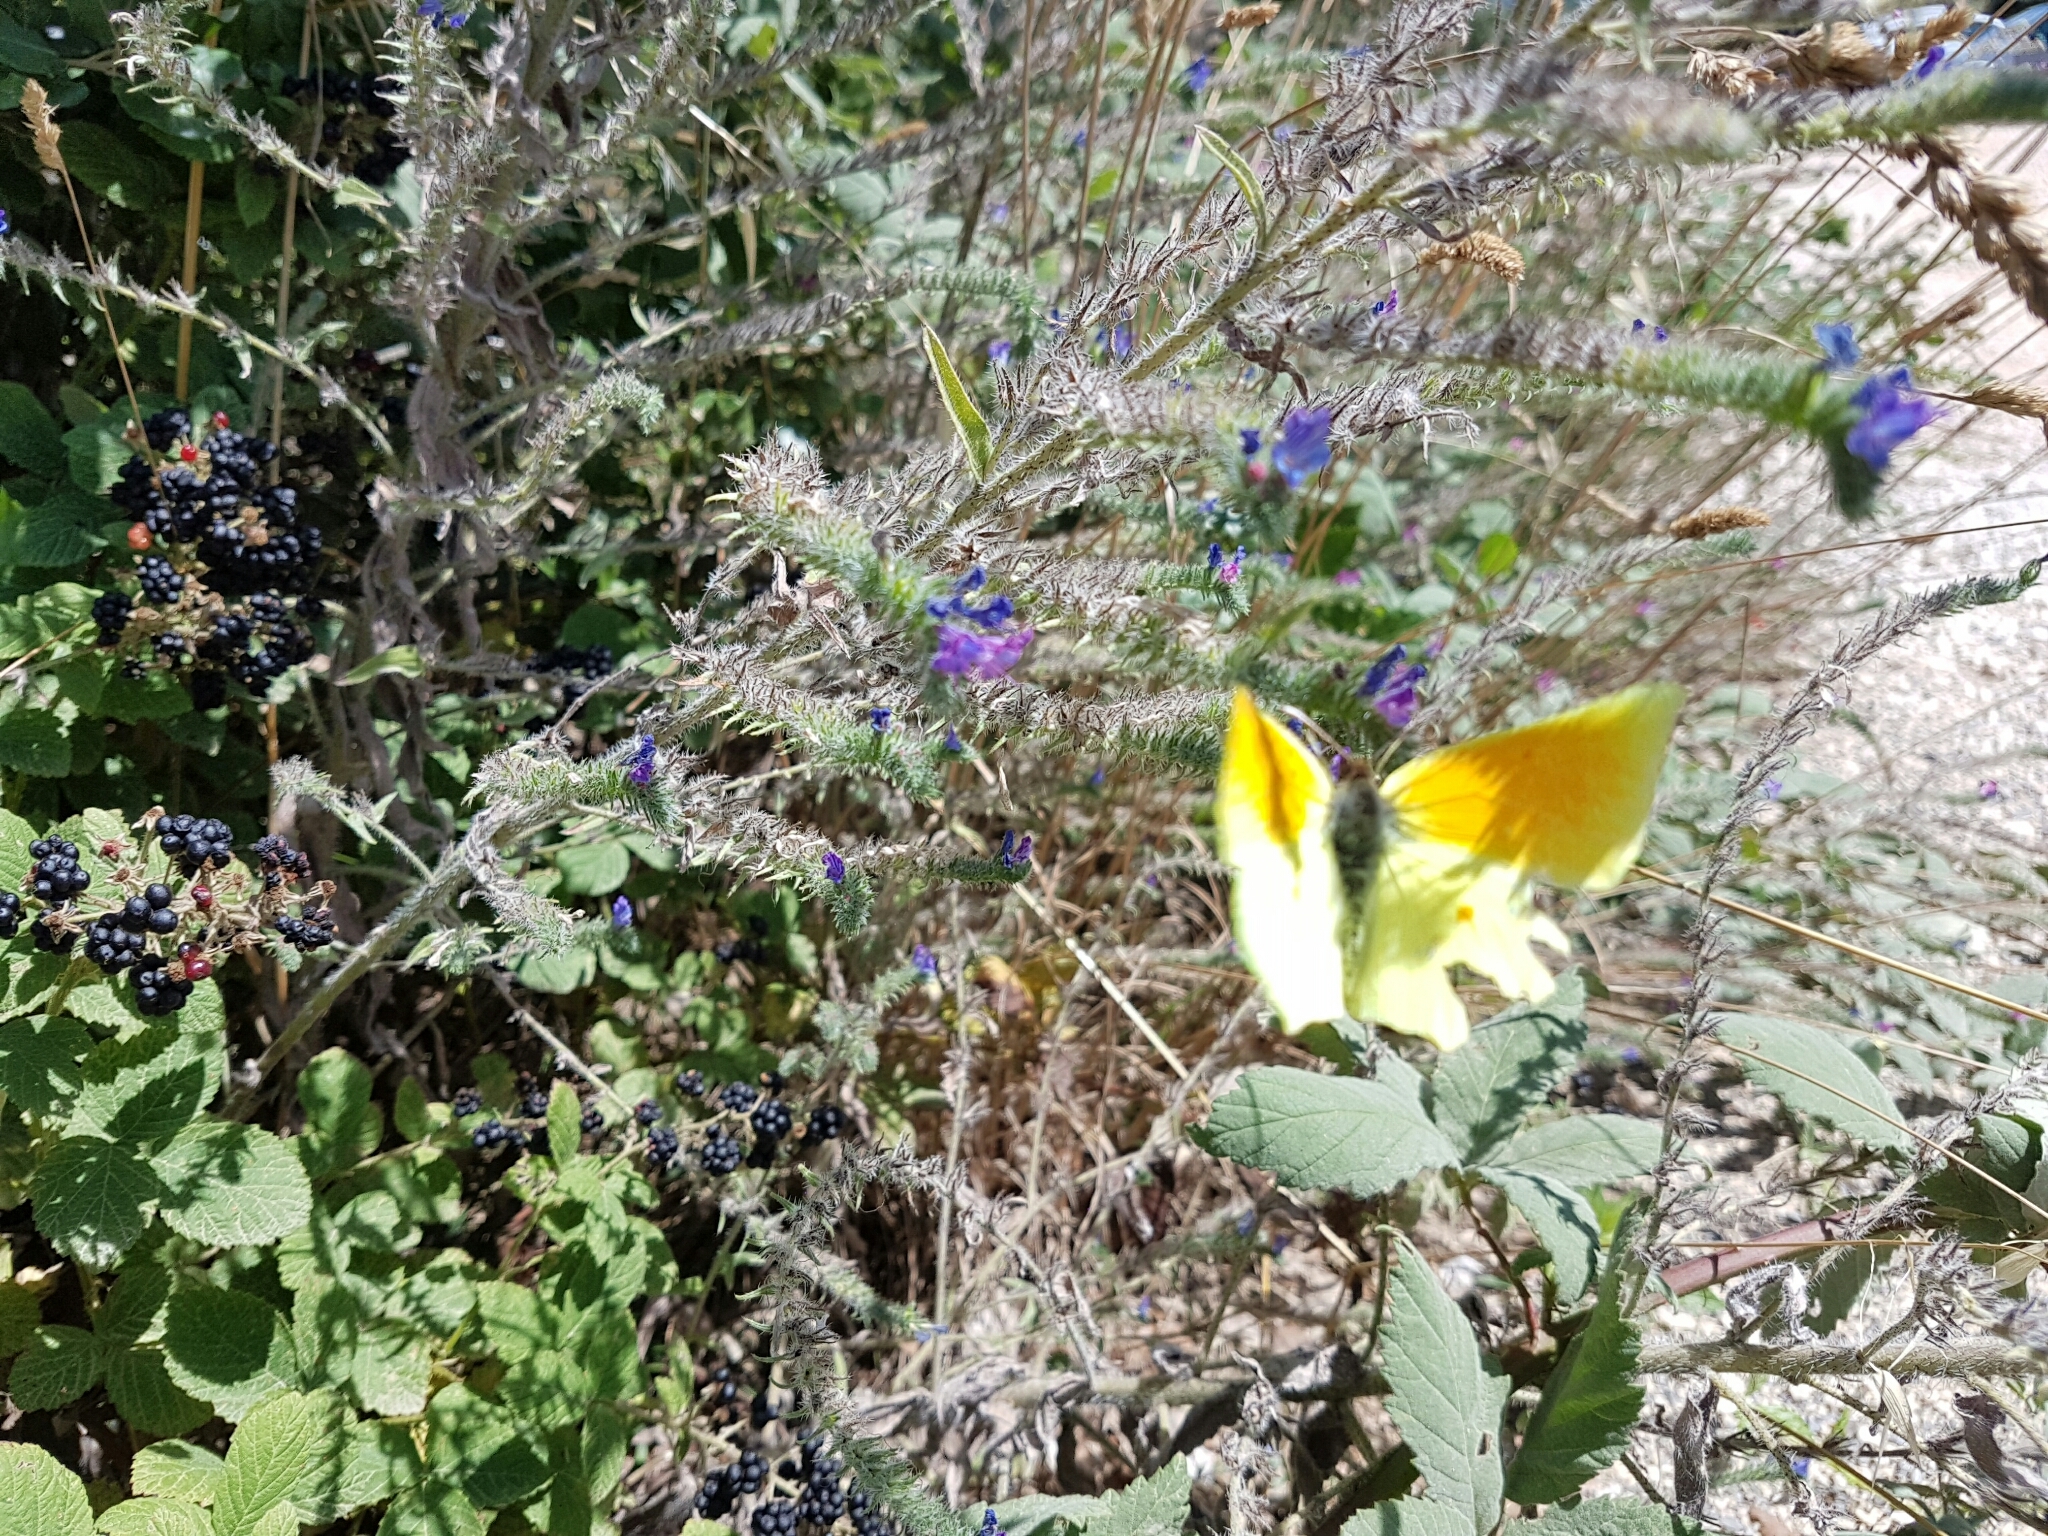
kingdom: Animalia
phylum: Arthropoda
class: Insecta
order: Lepidoptera
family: Pieridae
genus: Gonepteryx
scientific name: Gonepteryx cleopatra
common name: Cleopatra
